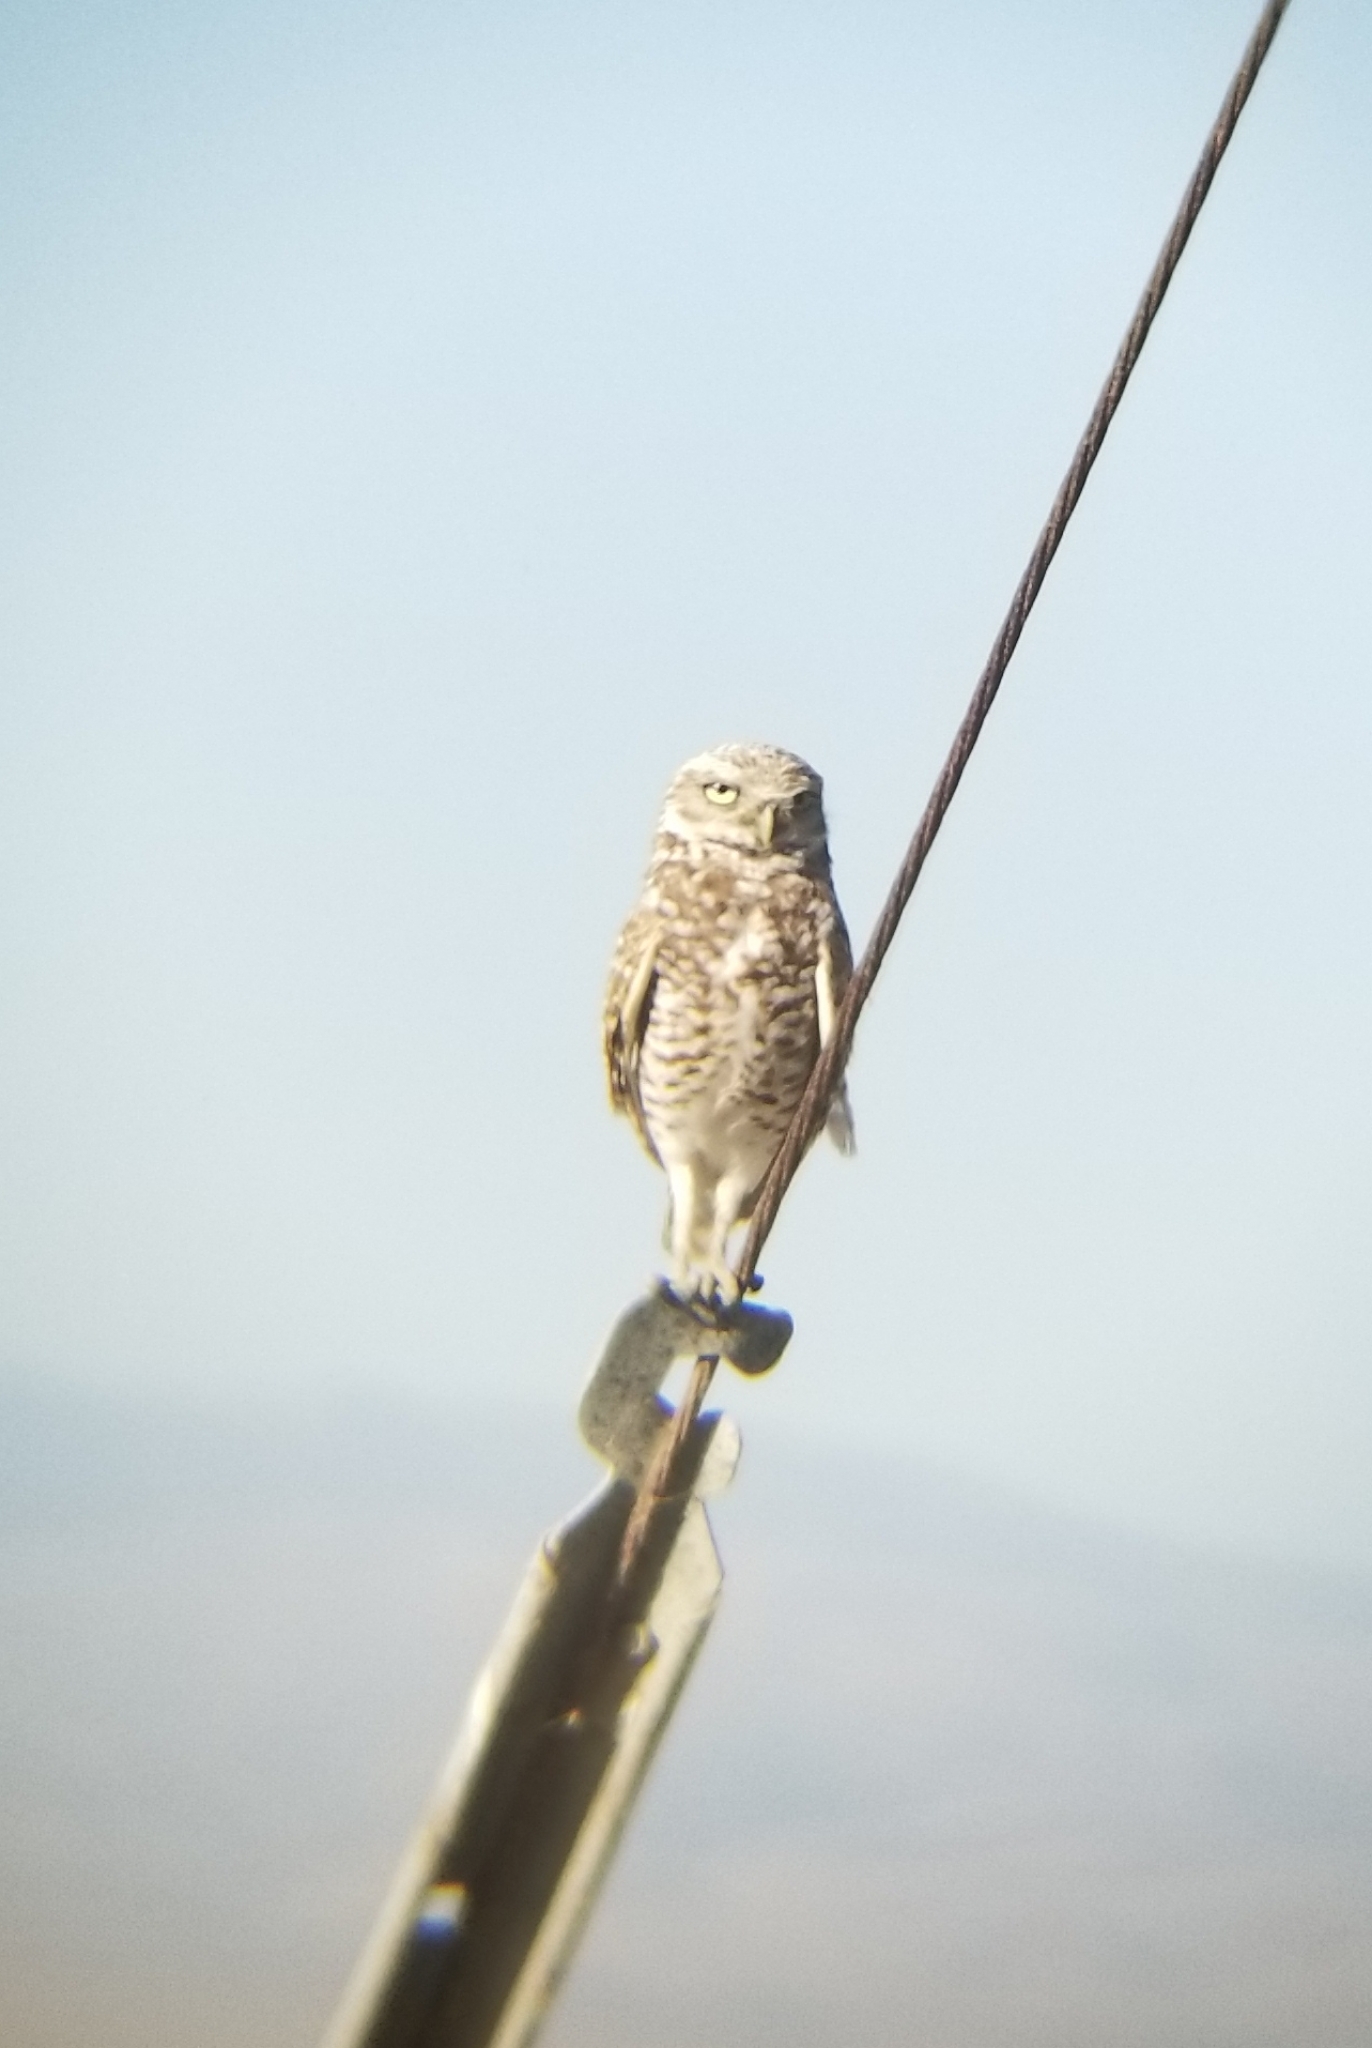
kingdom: Animalia
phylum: Chordata
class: Aves
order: Strigiformes
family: Strigidae
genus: Athene
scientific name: Athene cunicularia
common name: Burrowing owl
